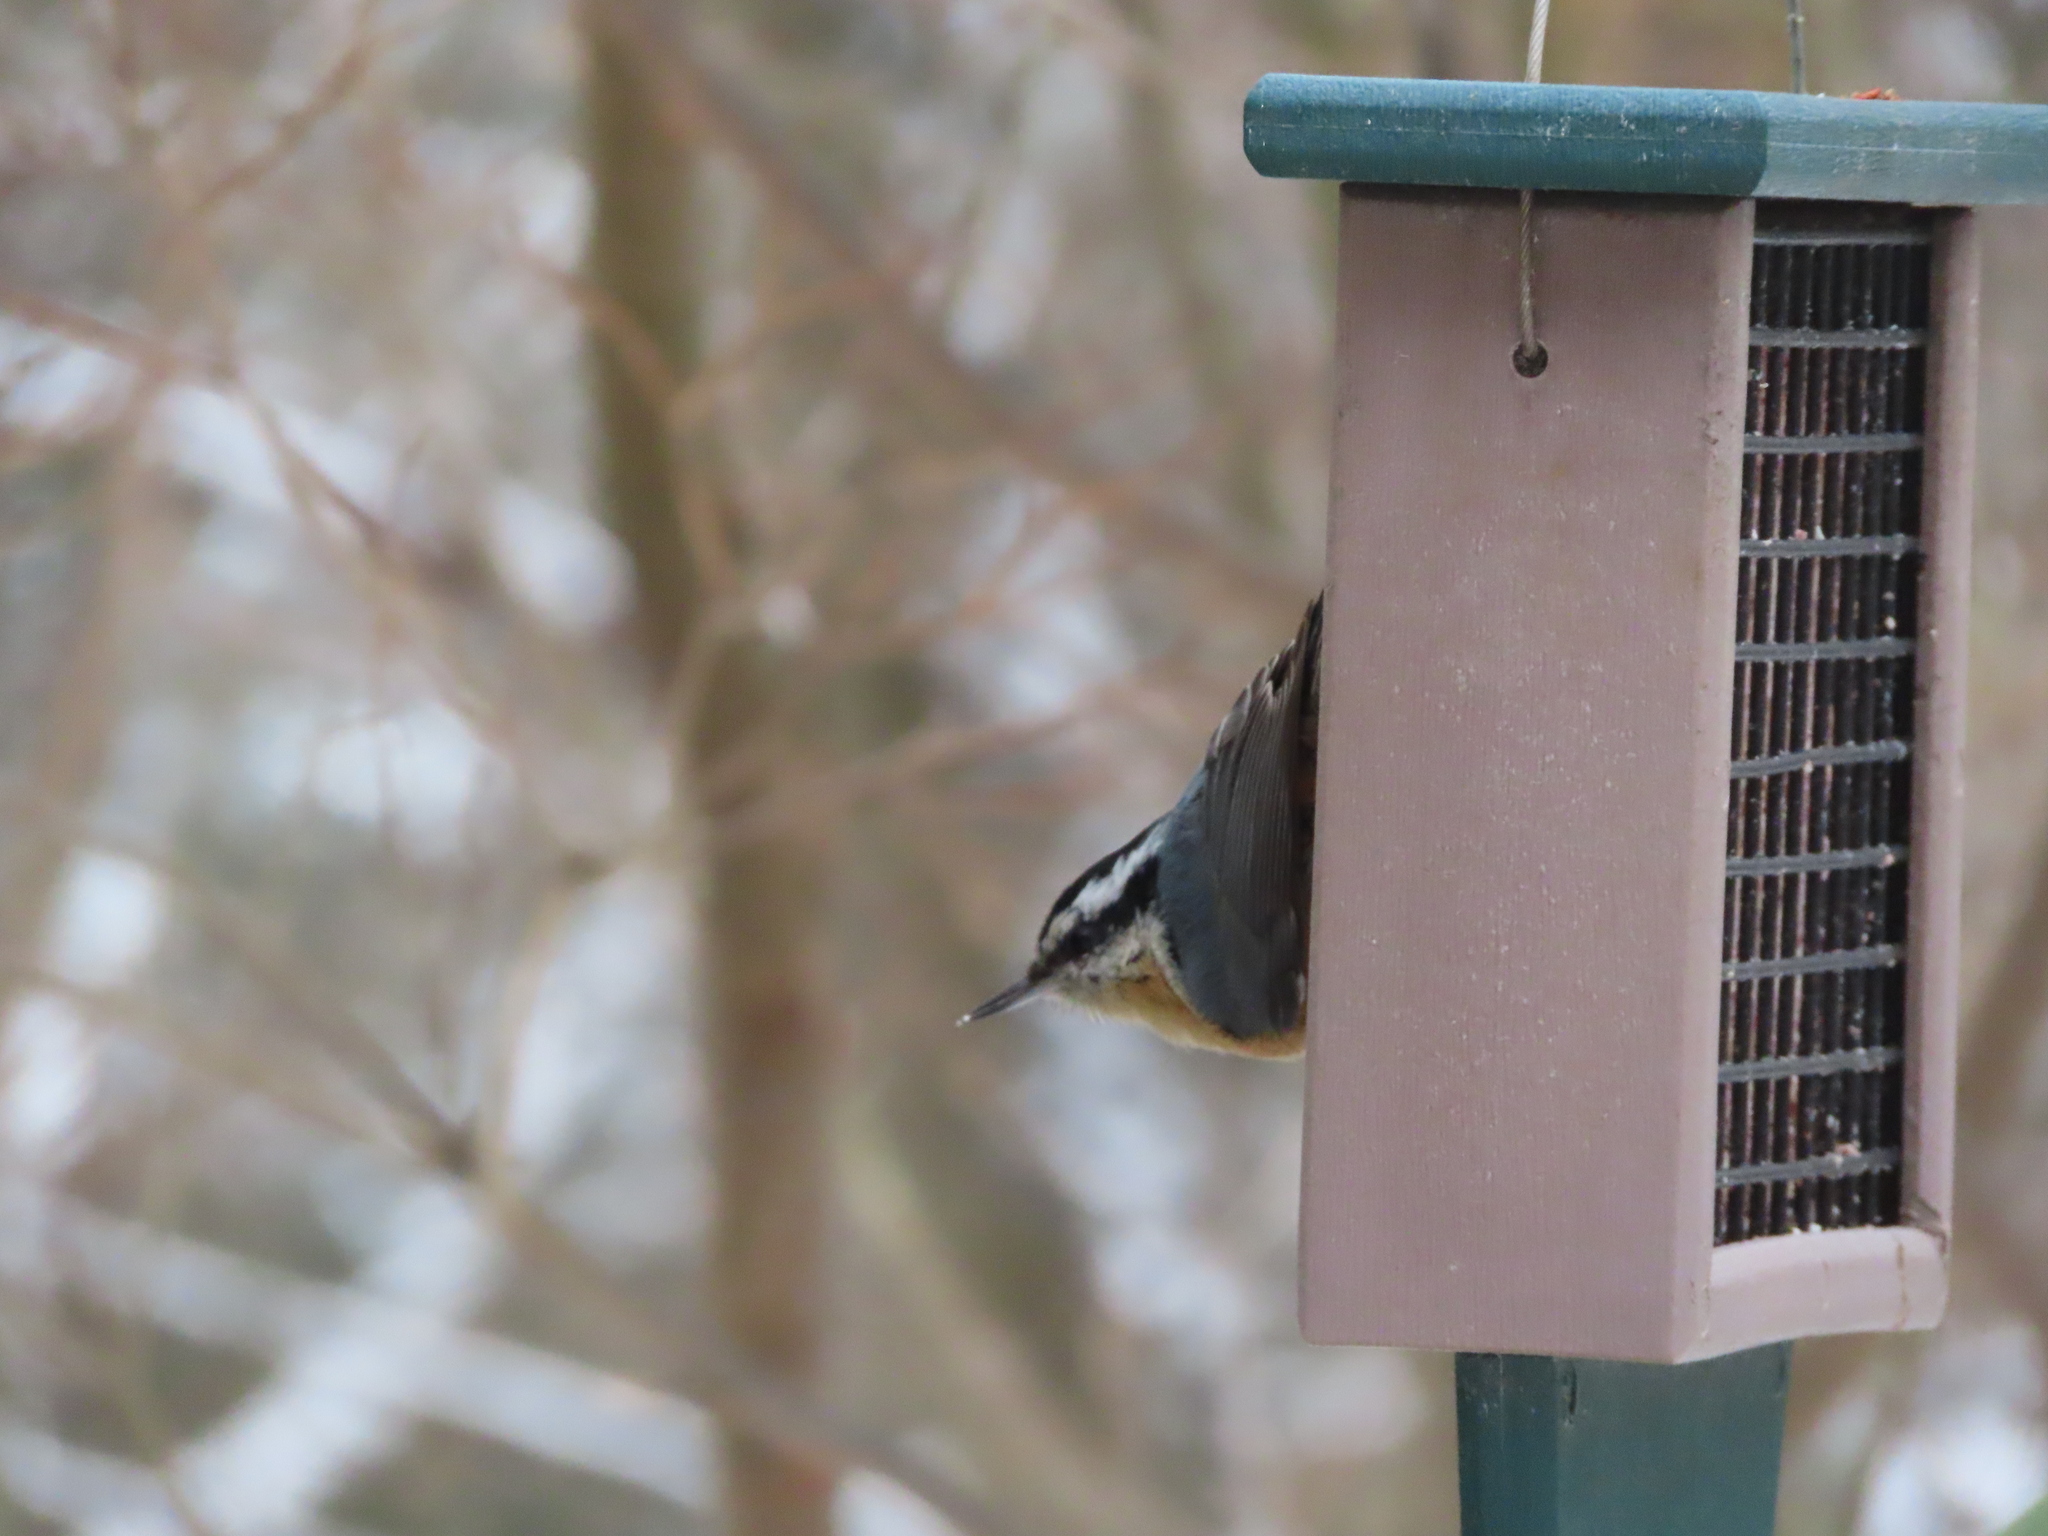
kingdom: Animalia
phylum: Chordata
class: Aves
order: Passeriformes
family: Sittidae
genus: Sitta
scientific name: Sitta canadensis
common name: Red-breasted nuthatch
